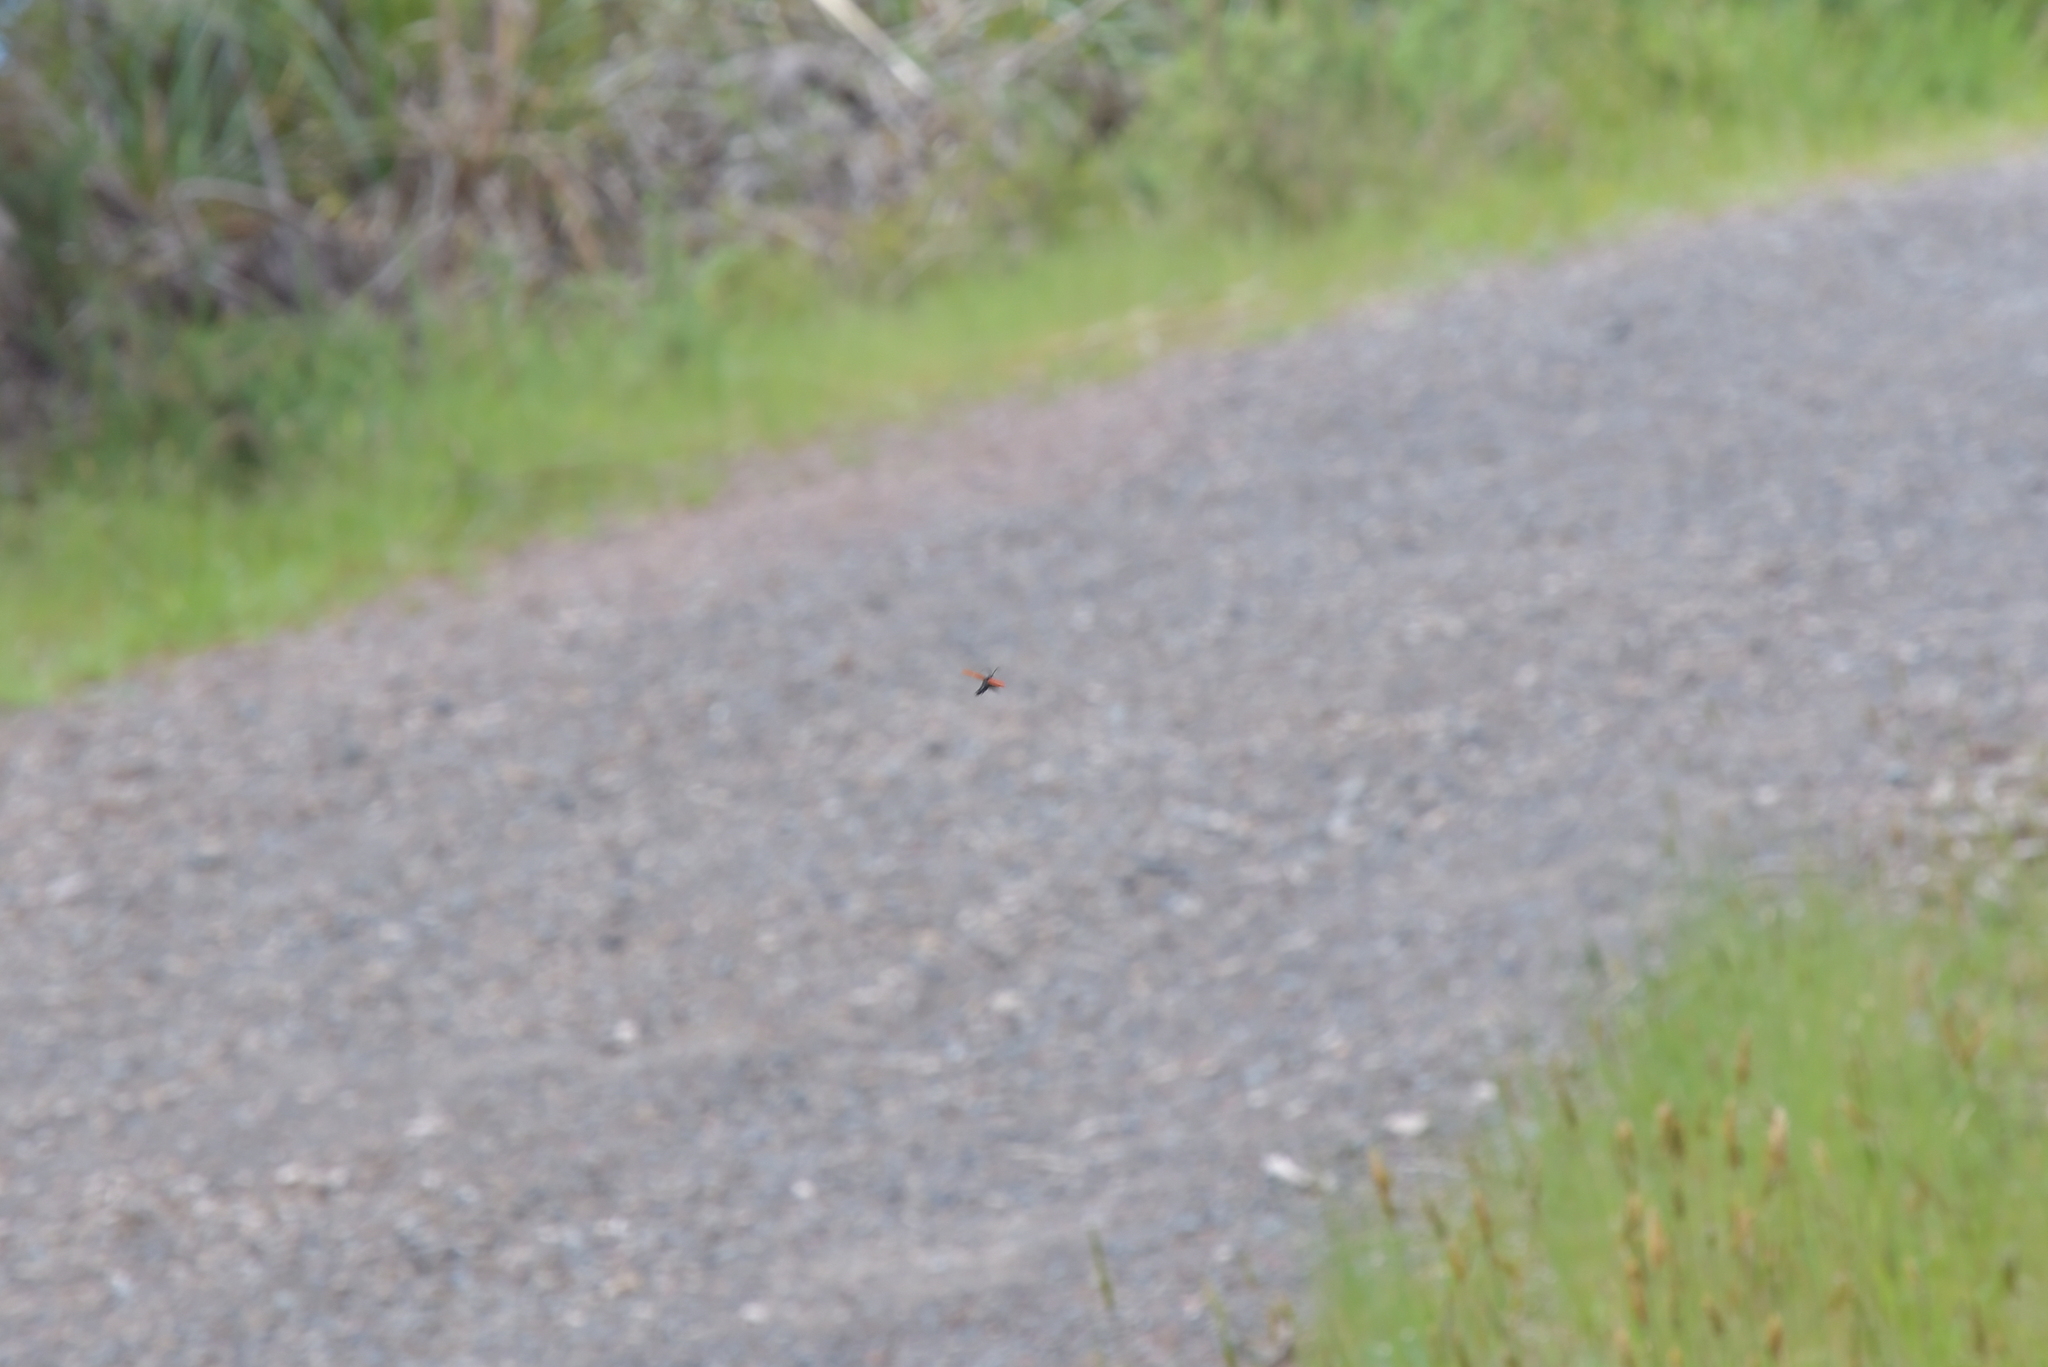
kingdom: Animalia
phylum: Arthropoda
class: Insecta
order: Coleoptera
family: Lycidae
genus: Porrostoma
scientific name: Porrostoma rufipenne
